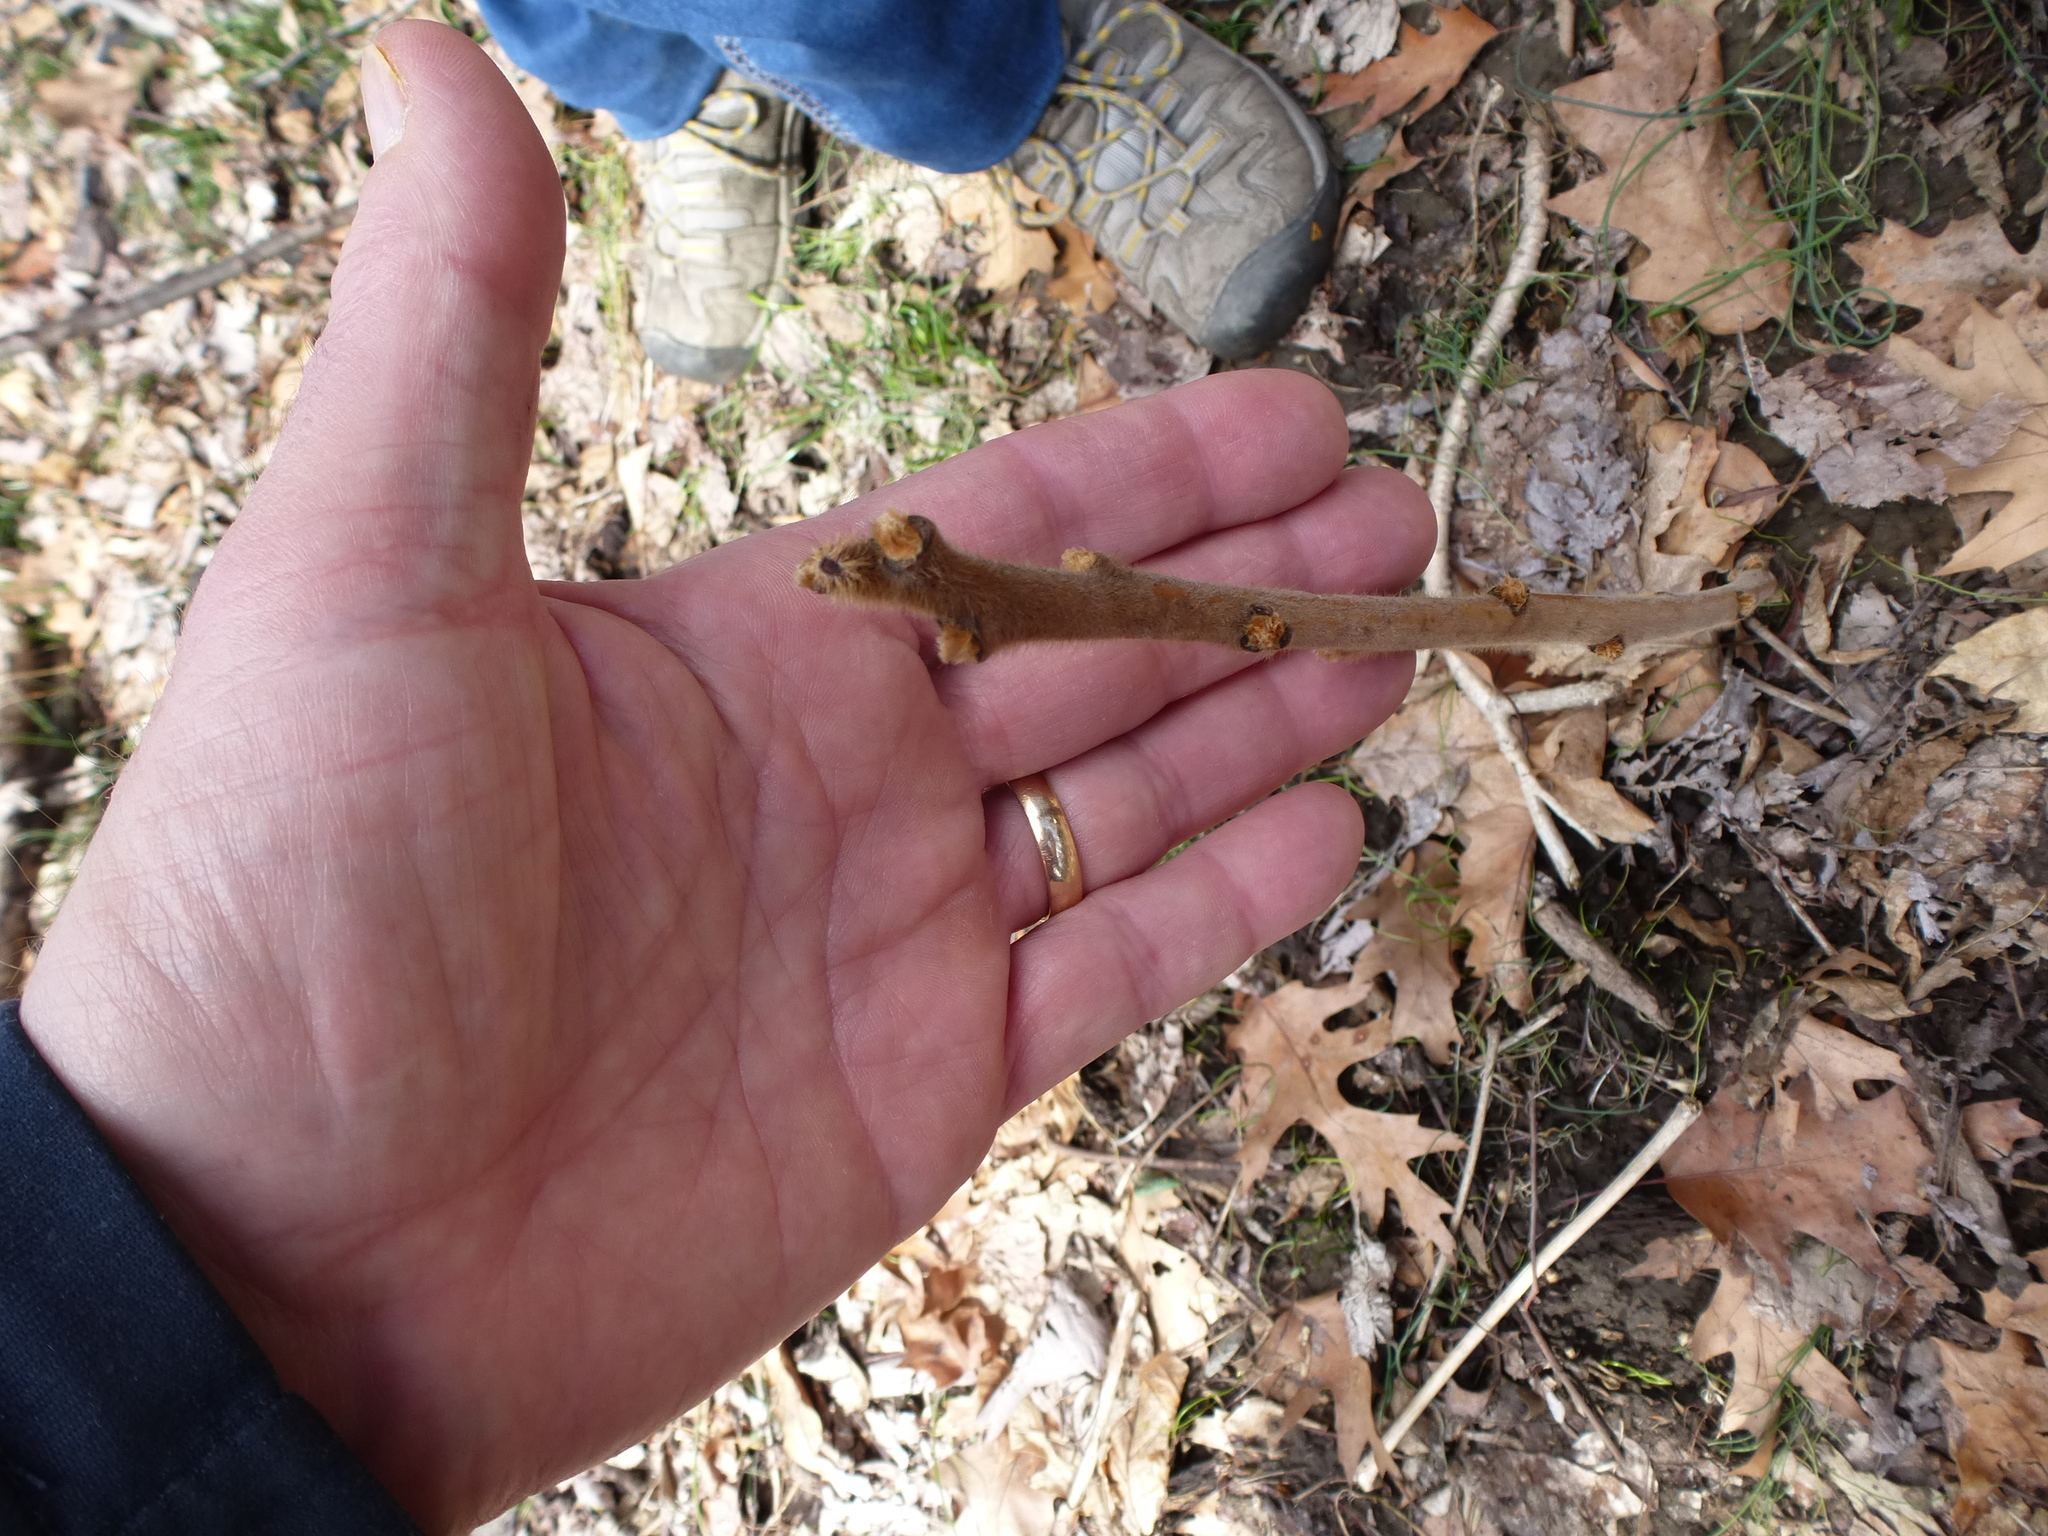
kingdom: Plantae
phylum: Tracheophyta
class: Magnoliopsida
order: Sapindales
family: Anacardiaceae
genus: Rhus
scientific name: Rhus typhina
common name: Staghorn sumac
